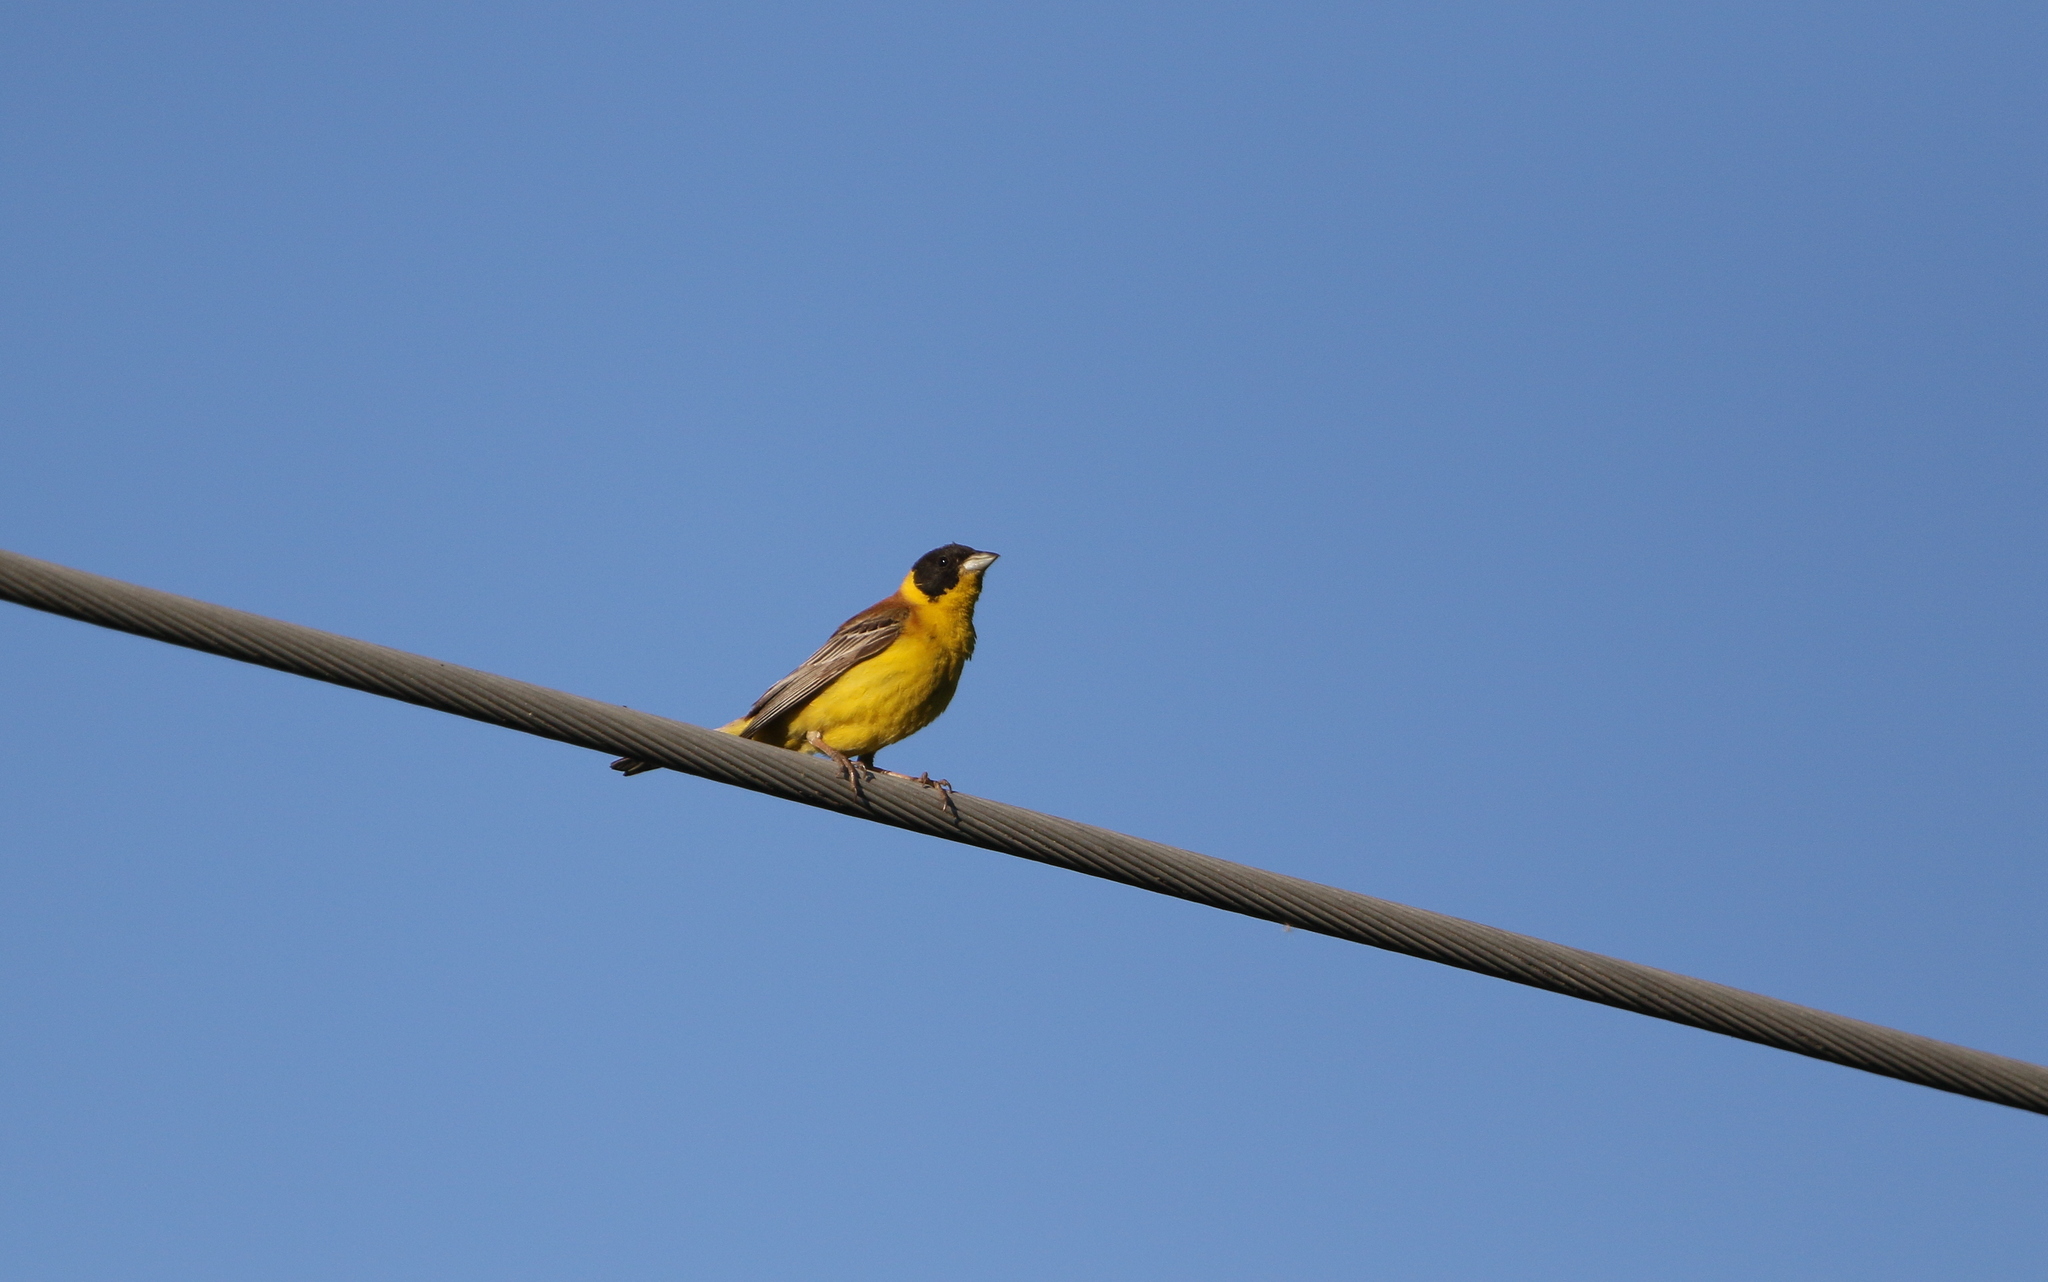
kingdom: Animalia
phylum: Chordata
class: Aves
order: Passeriformes
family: Emberizidae
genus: Emberiza
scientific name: Emberiza melanocephala
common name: Black-headed bunting
